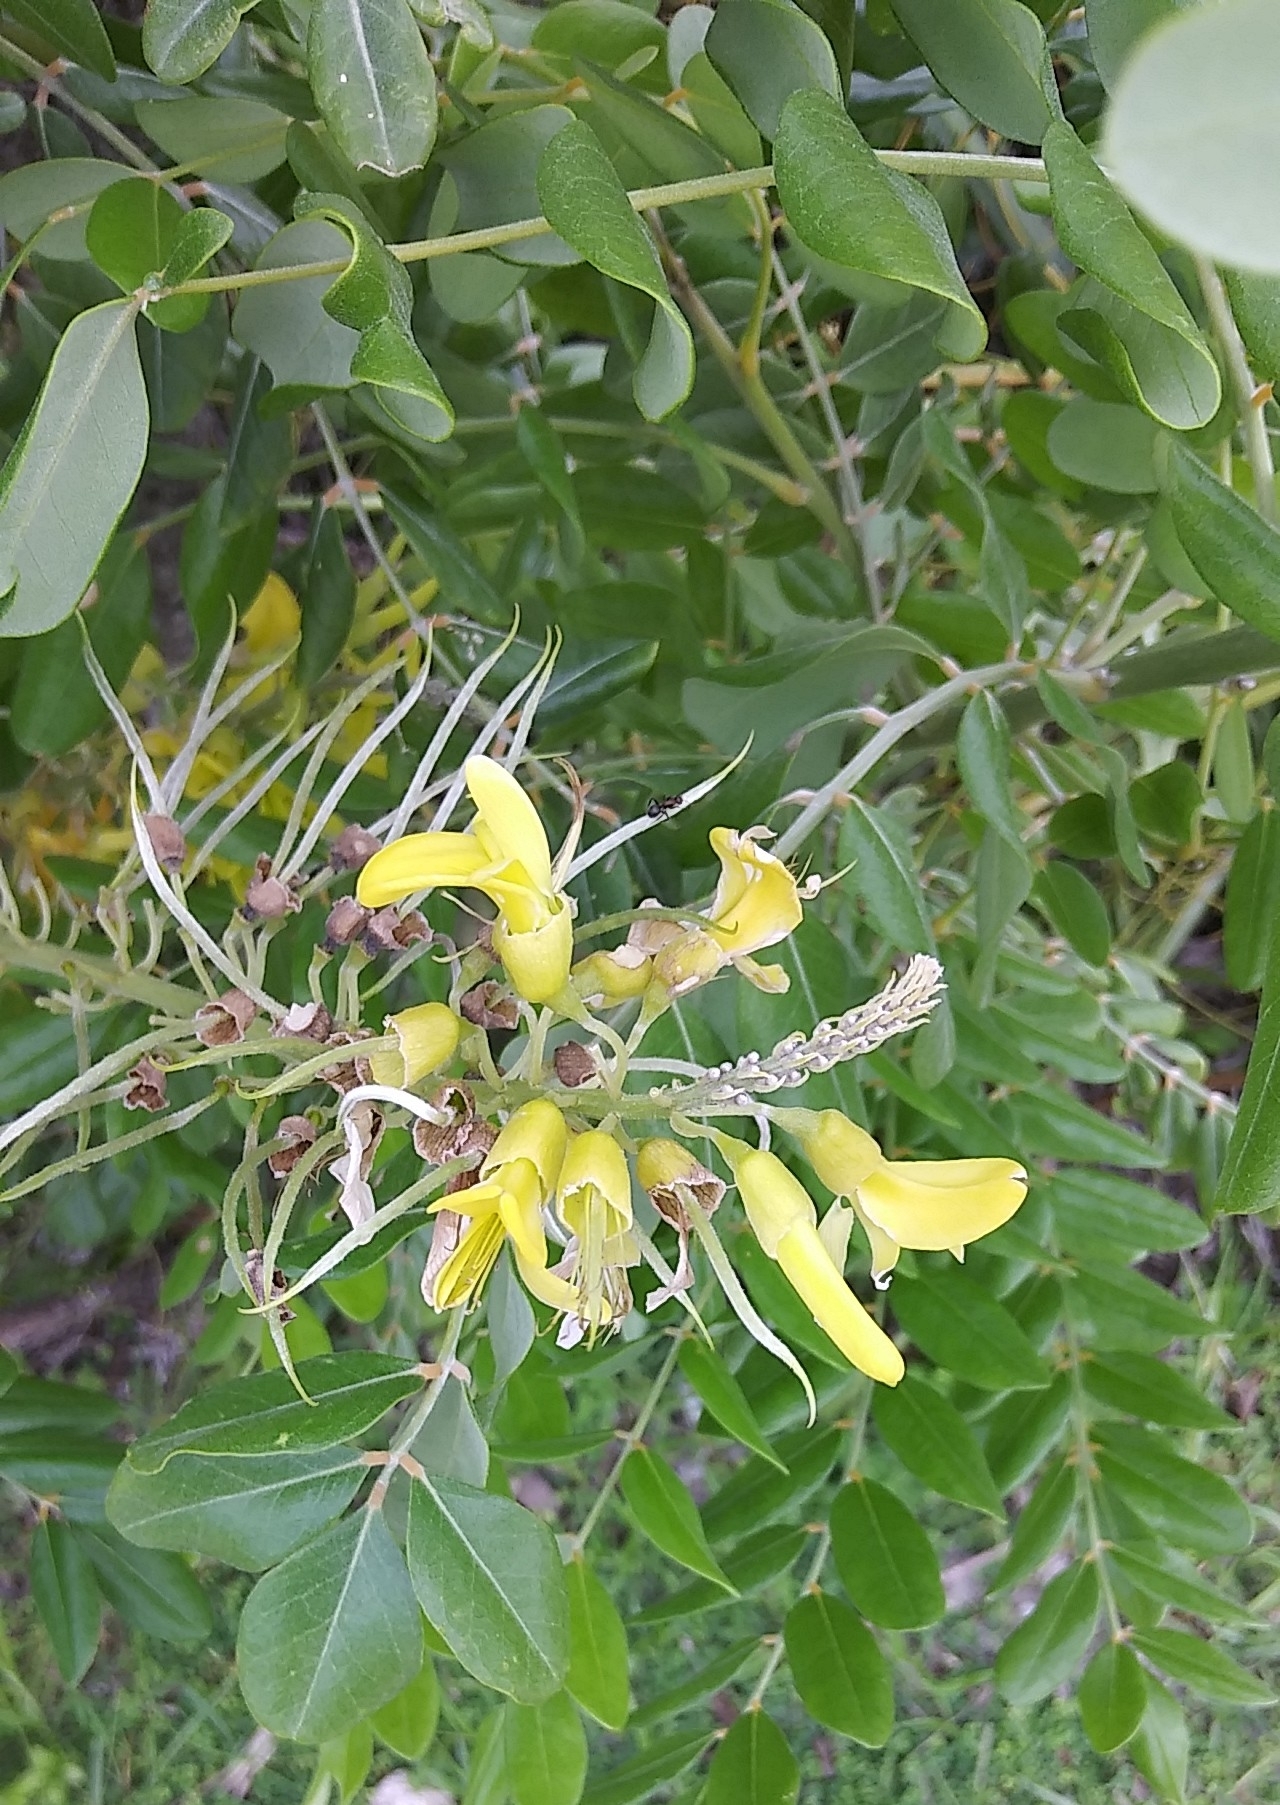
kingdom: Plantae
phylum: Tracheophyta
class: Magnoliopsida
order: Fabales
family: Fabaceae
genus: Sophora
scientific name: Sophora tomentosa
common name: Yellow necklacepod
